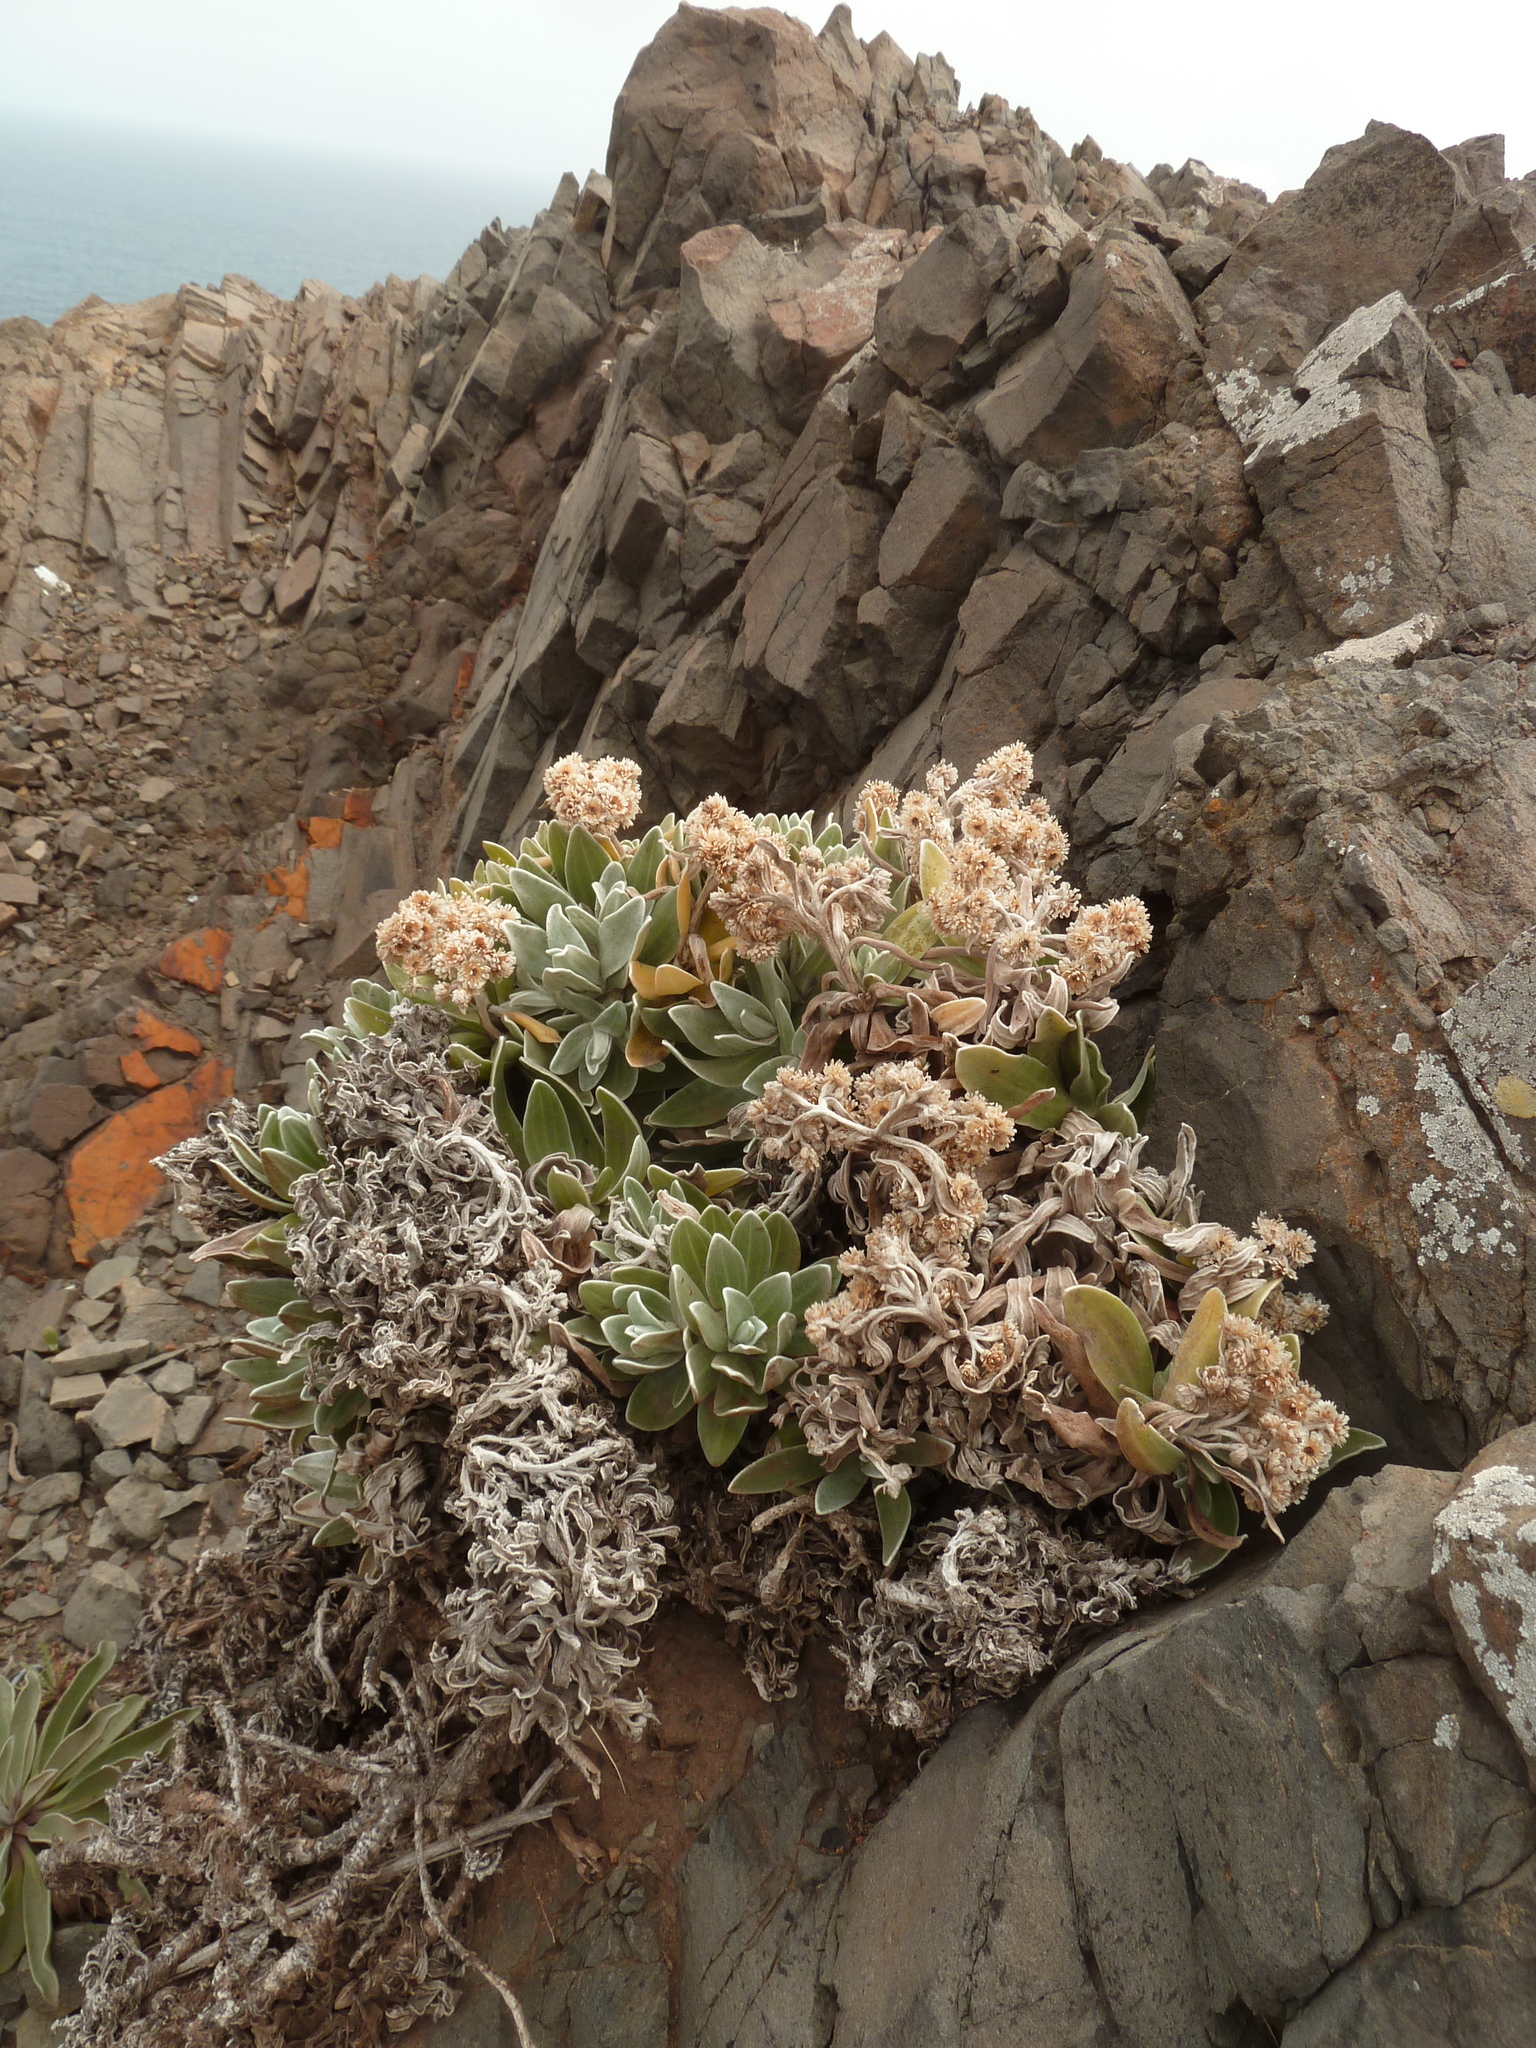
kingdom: Plantae
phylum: Tracheophyta
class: Magnoliopsida
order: Asterales
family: Asteraceae
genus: Helichrysum
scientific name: Helichrysum devium
